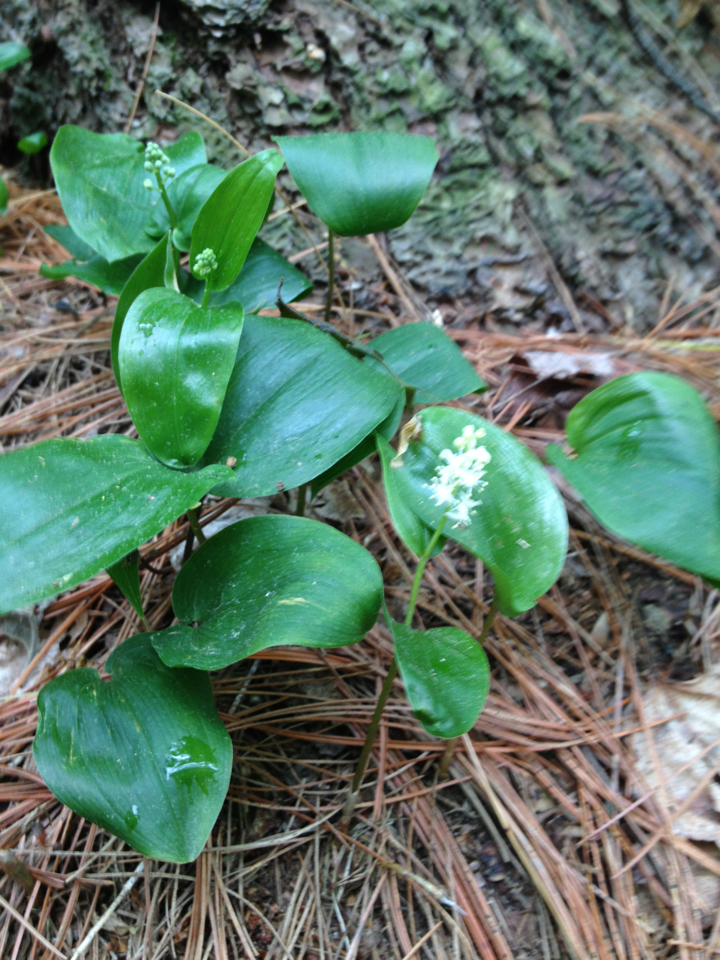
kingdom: Plantae
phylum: Tracheophyta
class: Liliopsida
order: Asparagales
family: Asparagaceae
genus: Maianthemum
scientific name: Maianthemum canadense
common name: False lily-of-the-valley
